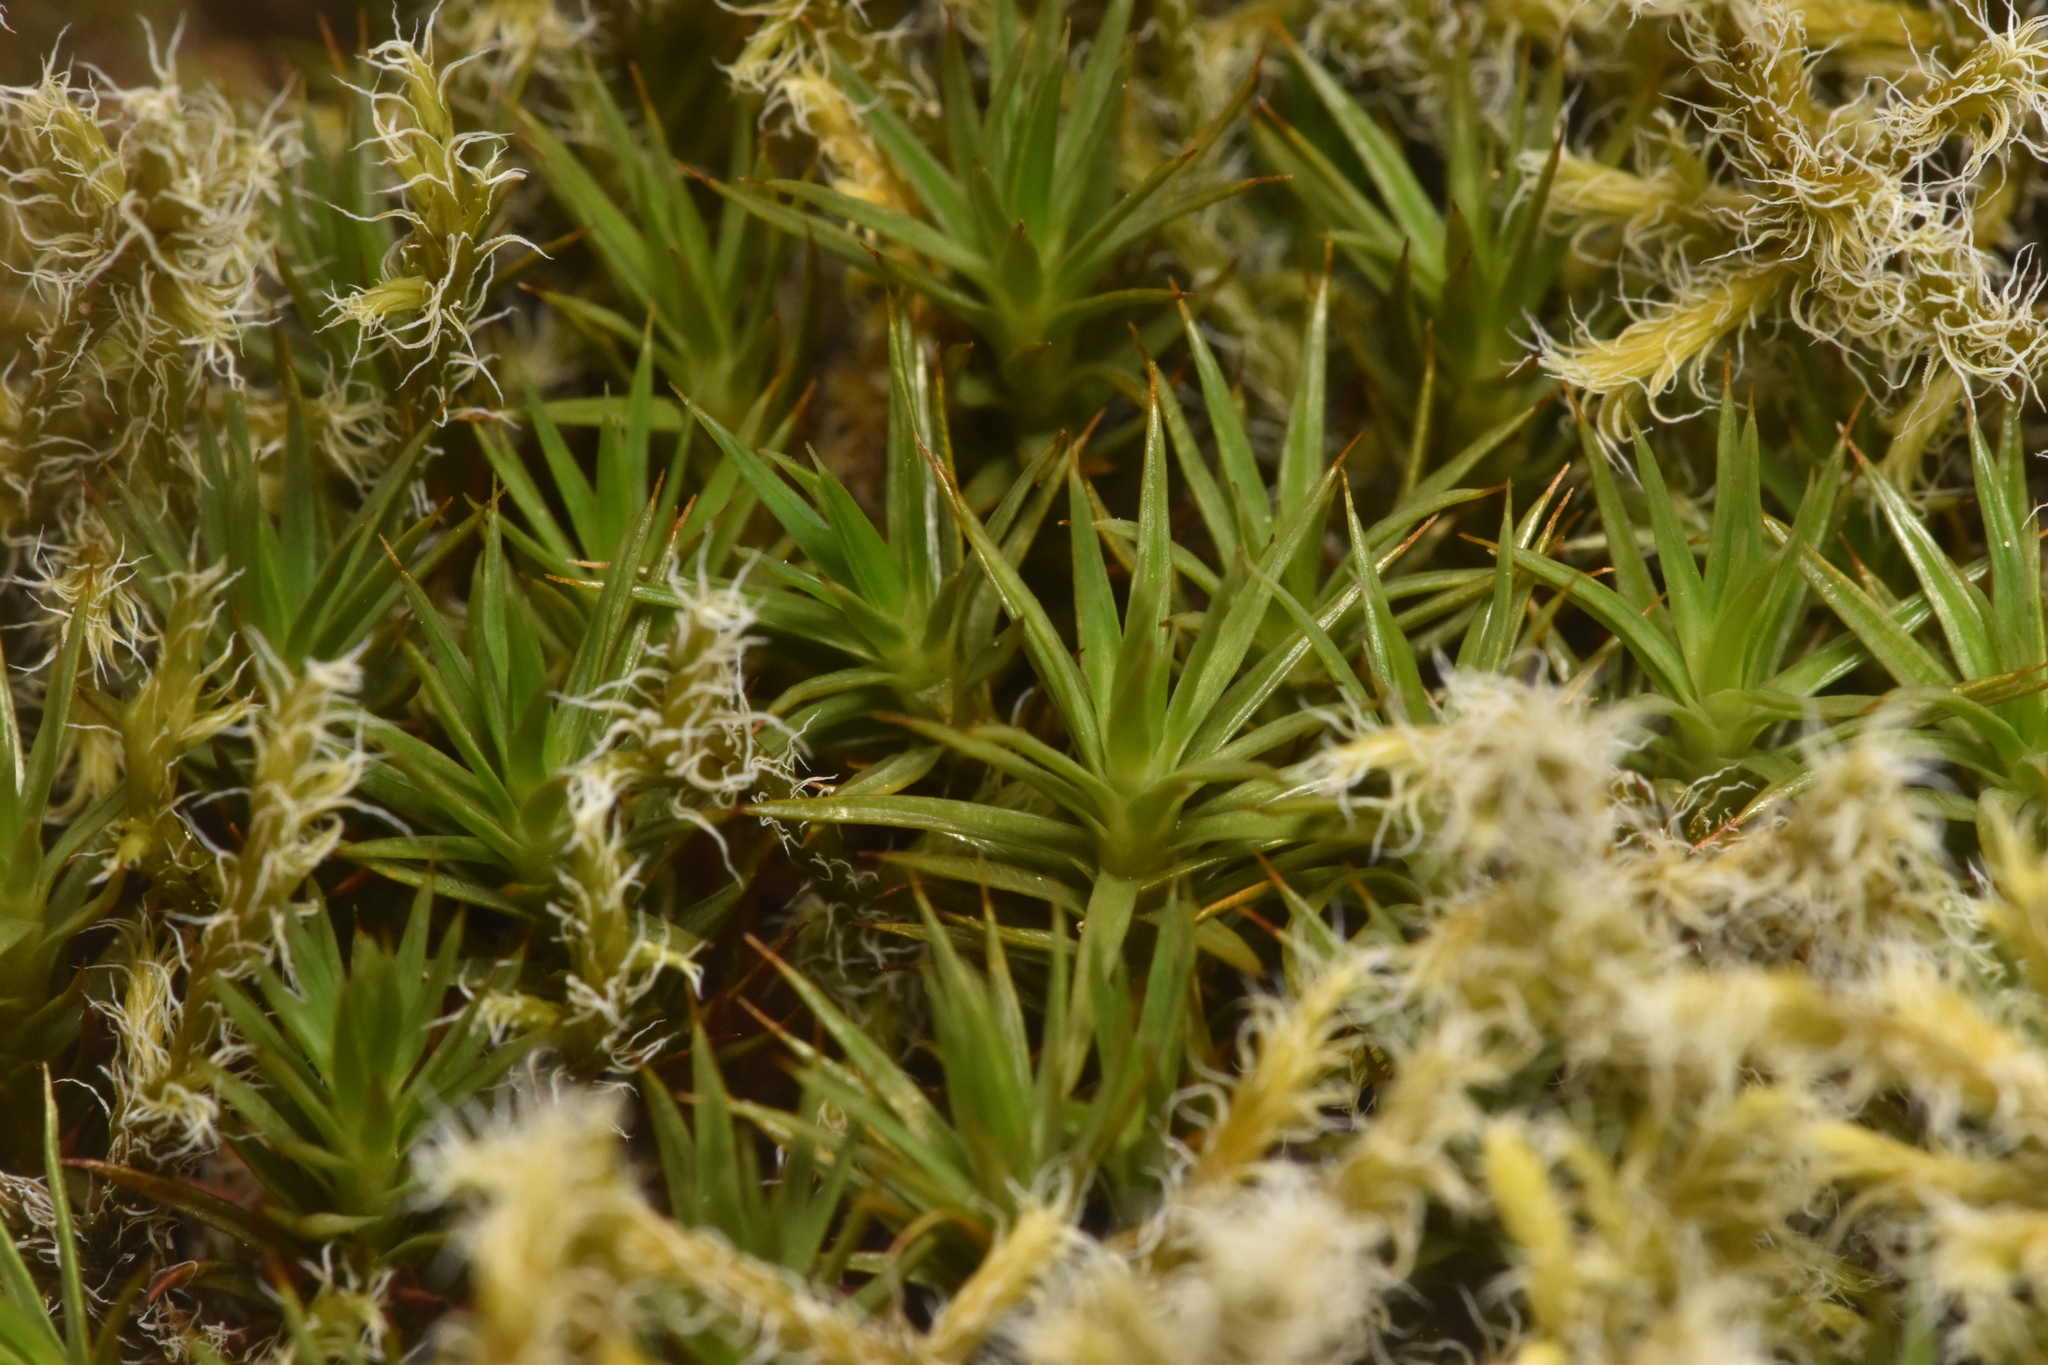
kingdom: Plantae
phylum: Bryophyta
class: Polytrichopsida
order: Polytrichales
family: Polytrichaceae
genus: Polytrichum
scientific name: Polytrichum juniperinum
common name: Juniper haircap moss
